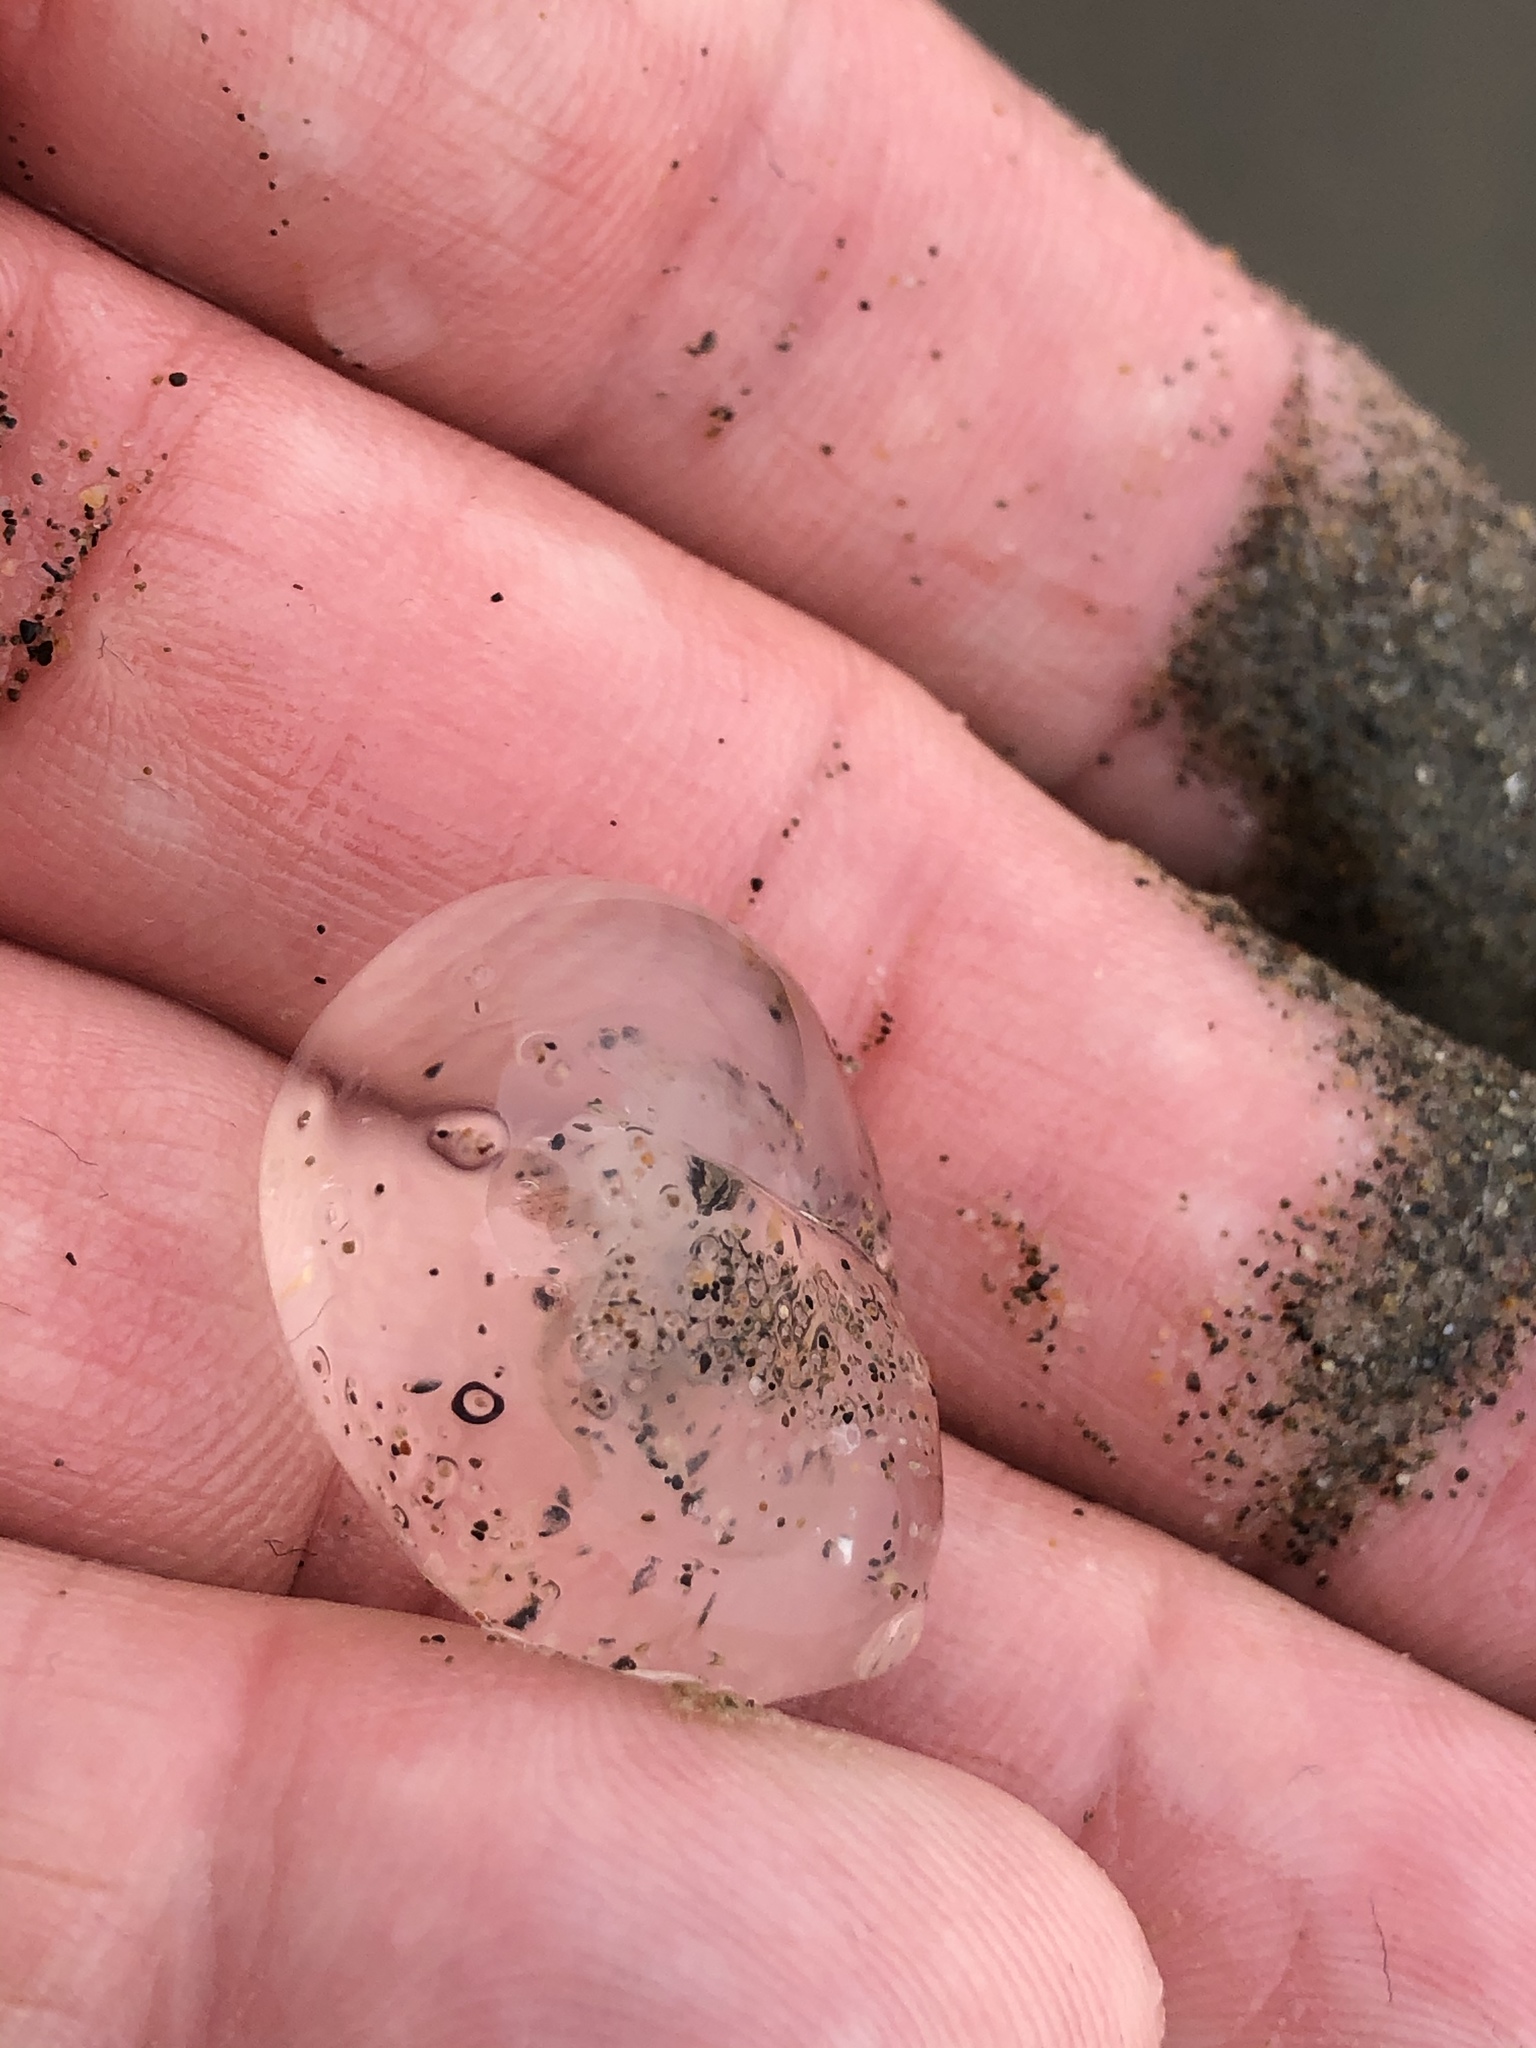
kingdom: Animalia
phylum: Cnidaria
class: Hydrozoa
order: Anthoathecata
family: Corynidae
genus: Polyorchis
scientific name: Polyorchis penicillatus
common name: Penicillate jellyfish
